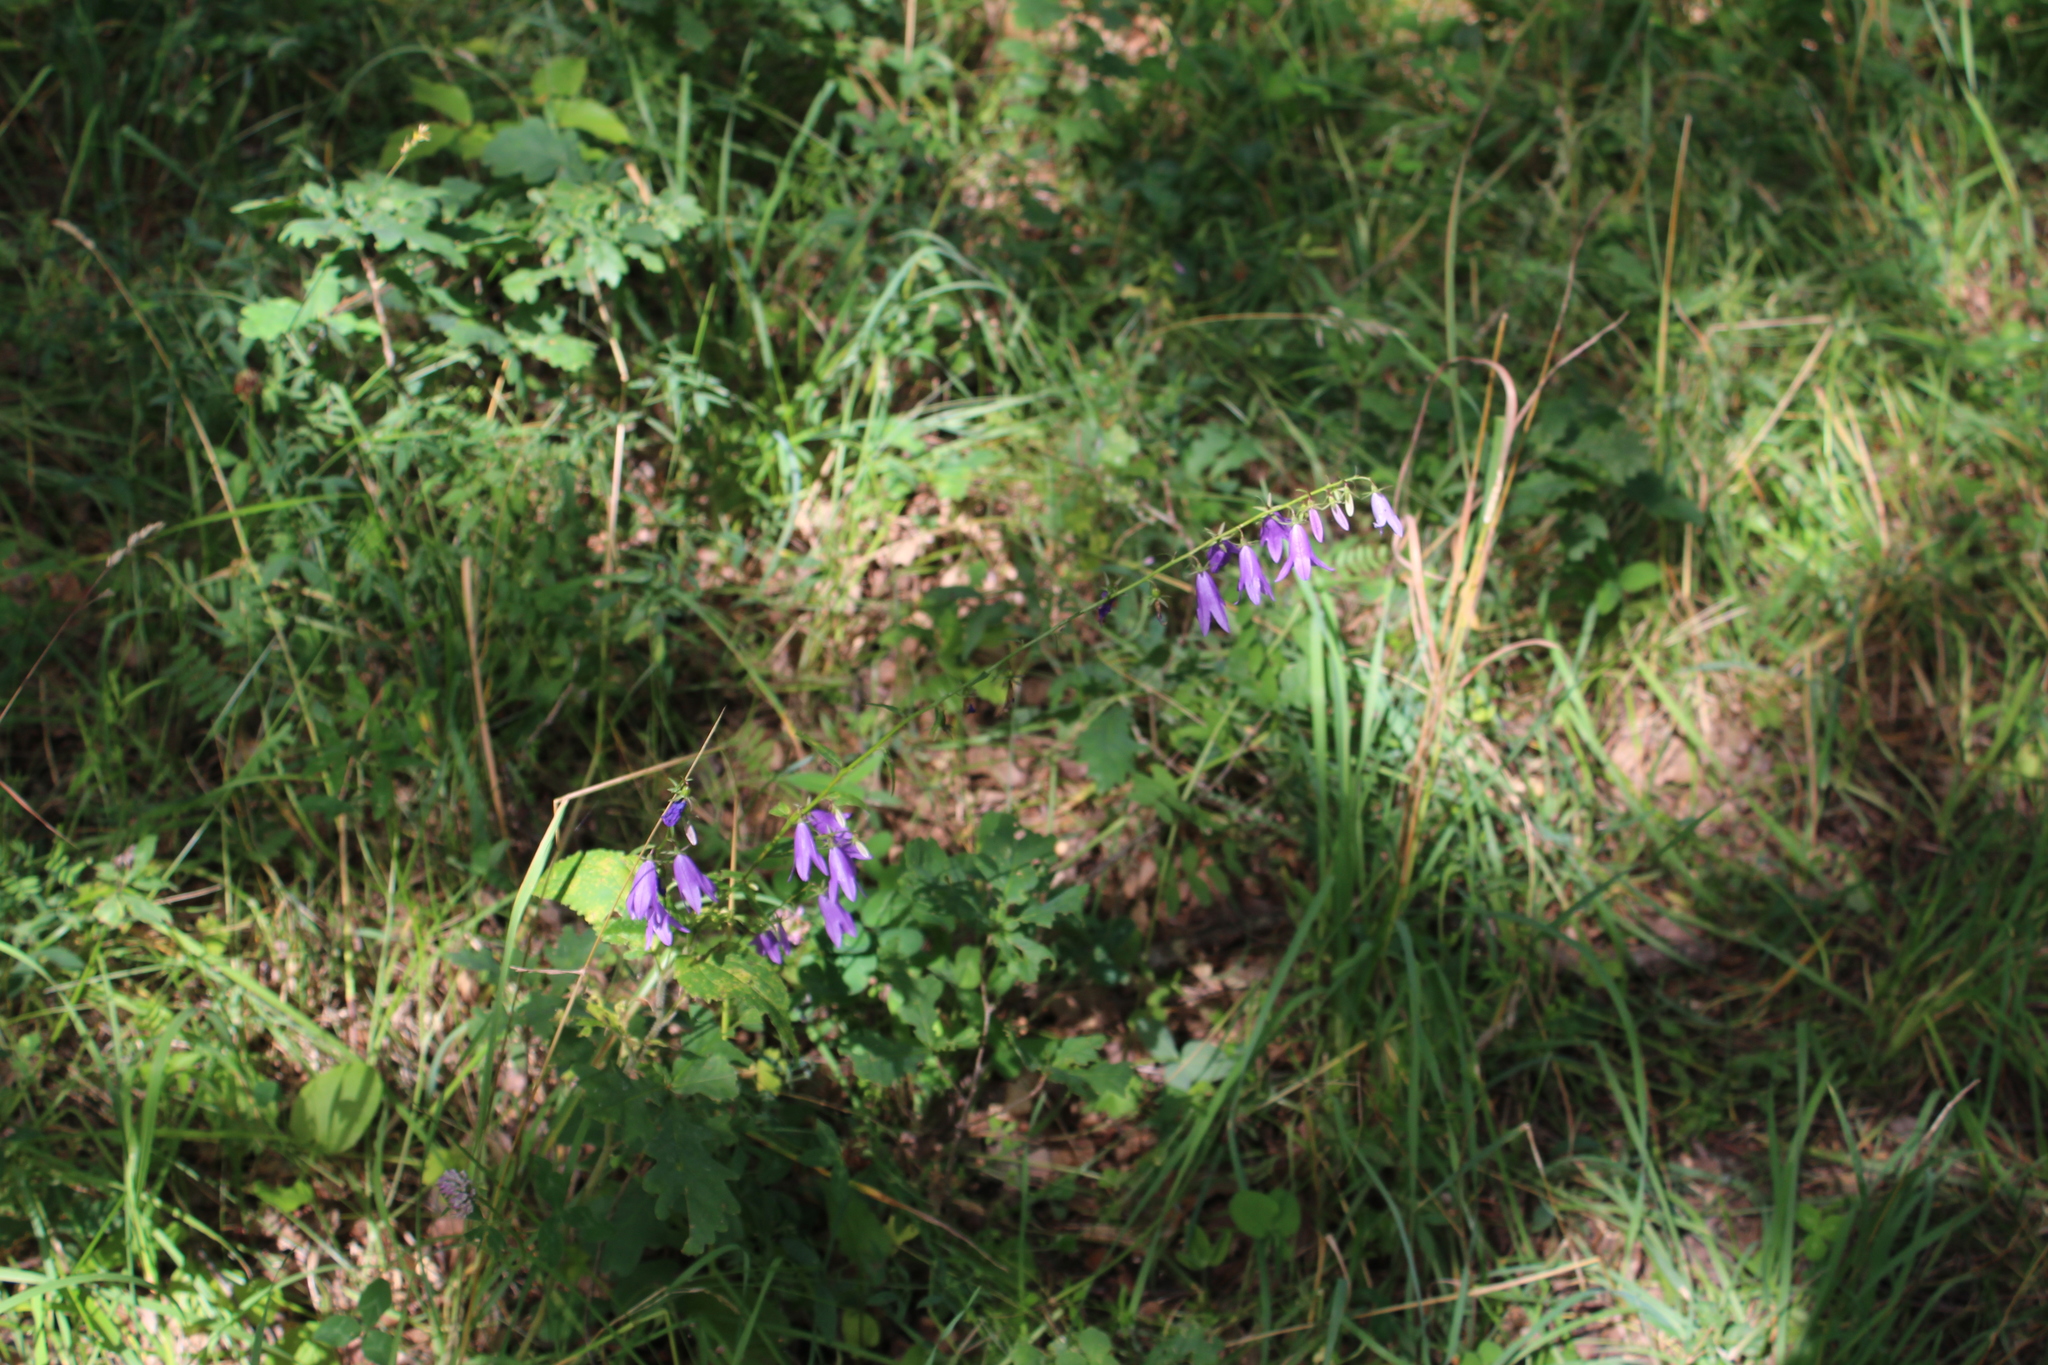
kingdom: Plantae
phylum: Tracheophyta
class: Magnoliopsida
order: Asterales
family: Campanulaceae
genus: Campanula
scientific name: Campanula rapunculoides
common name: Creeping bellflower
